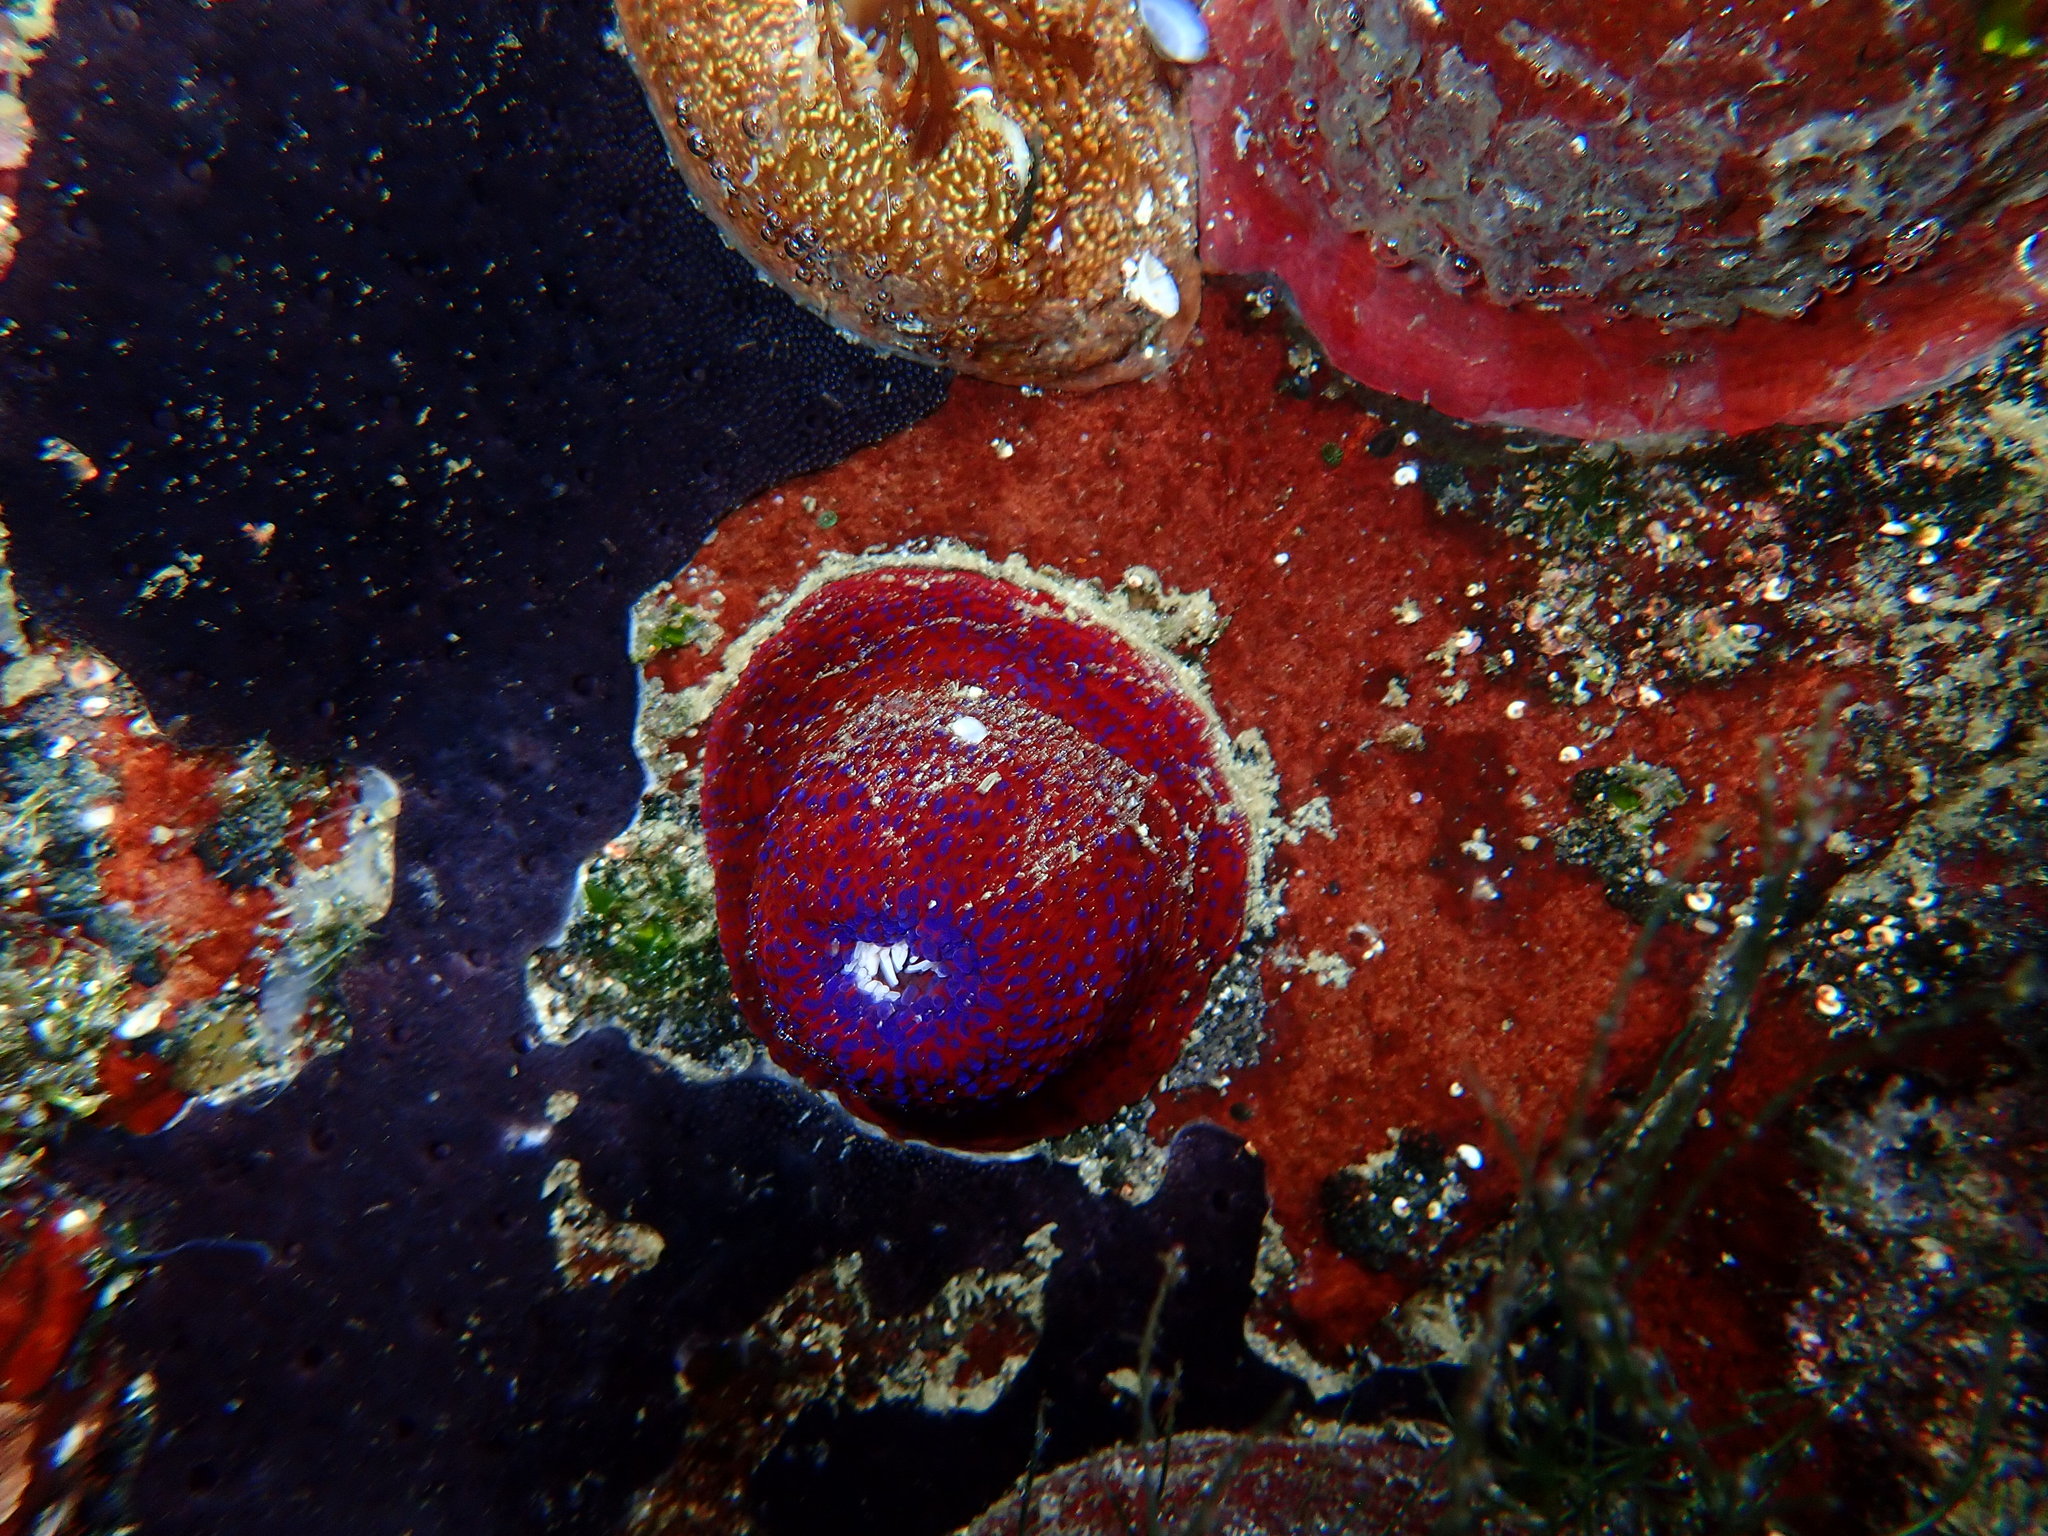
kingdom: Animalia
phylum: Cnidaria
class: Anthozoa
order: Actiniaria
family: Actiniidae
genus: Bunodosoma
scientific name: Bunodosoma capense
